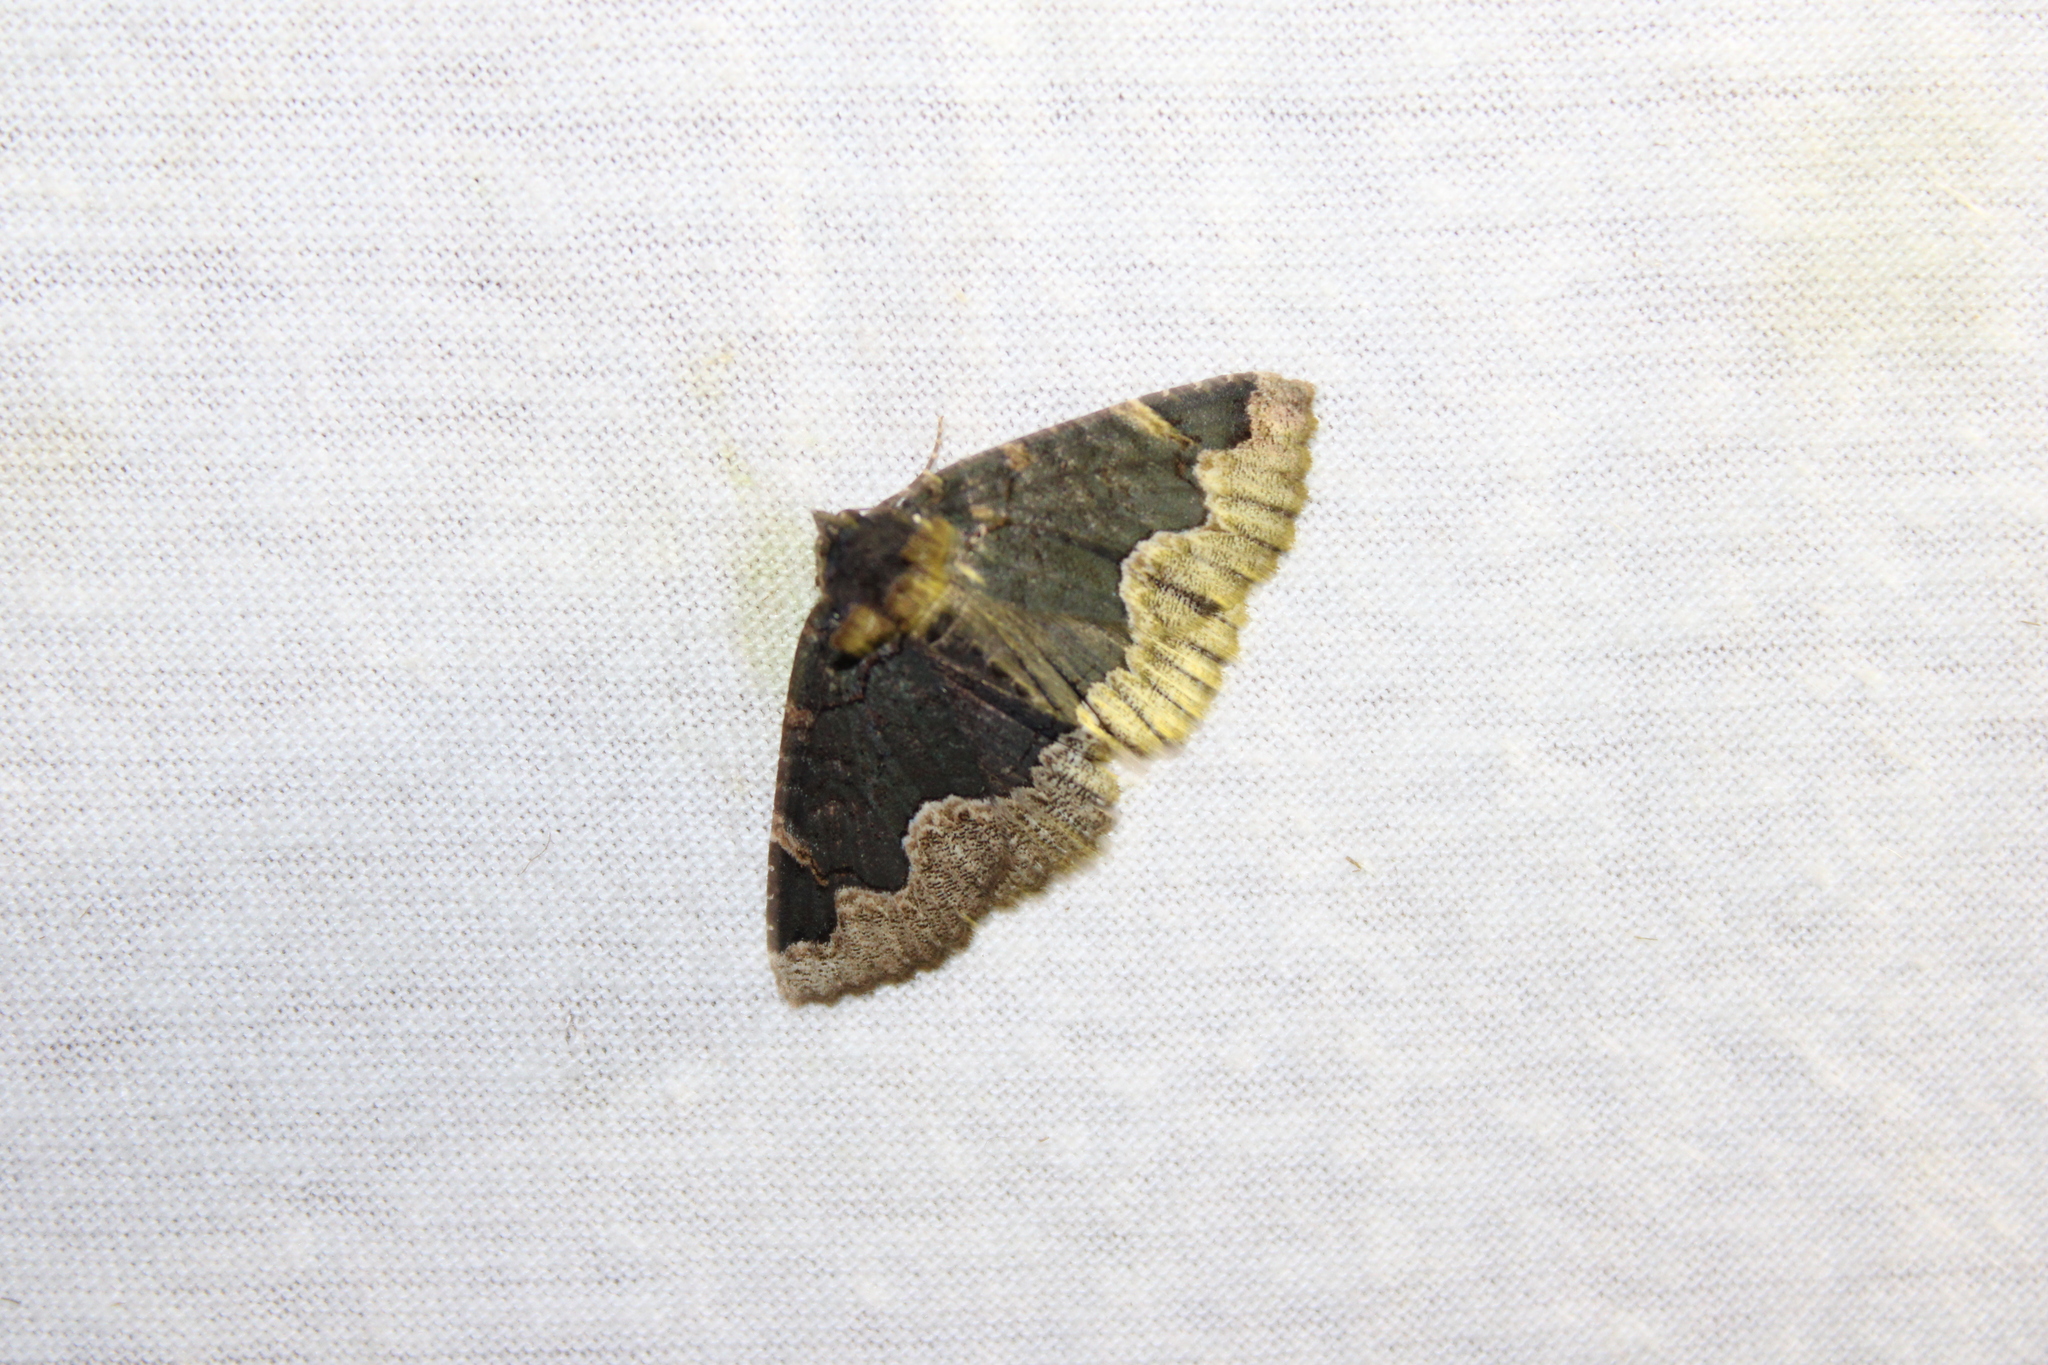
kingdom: Animalia
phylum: Arthropoda
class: Insecta
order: Lepidoptera
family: Erebidae
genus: Zale
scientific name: Zale horrida
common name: Horrid zale moth
